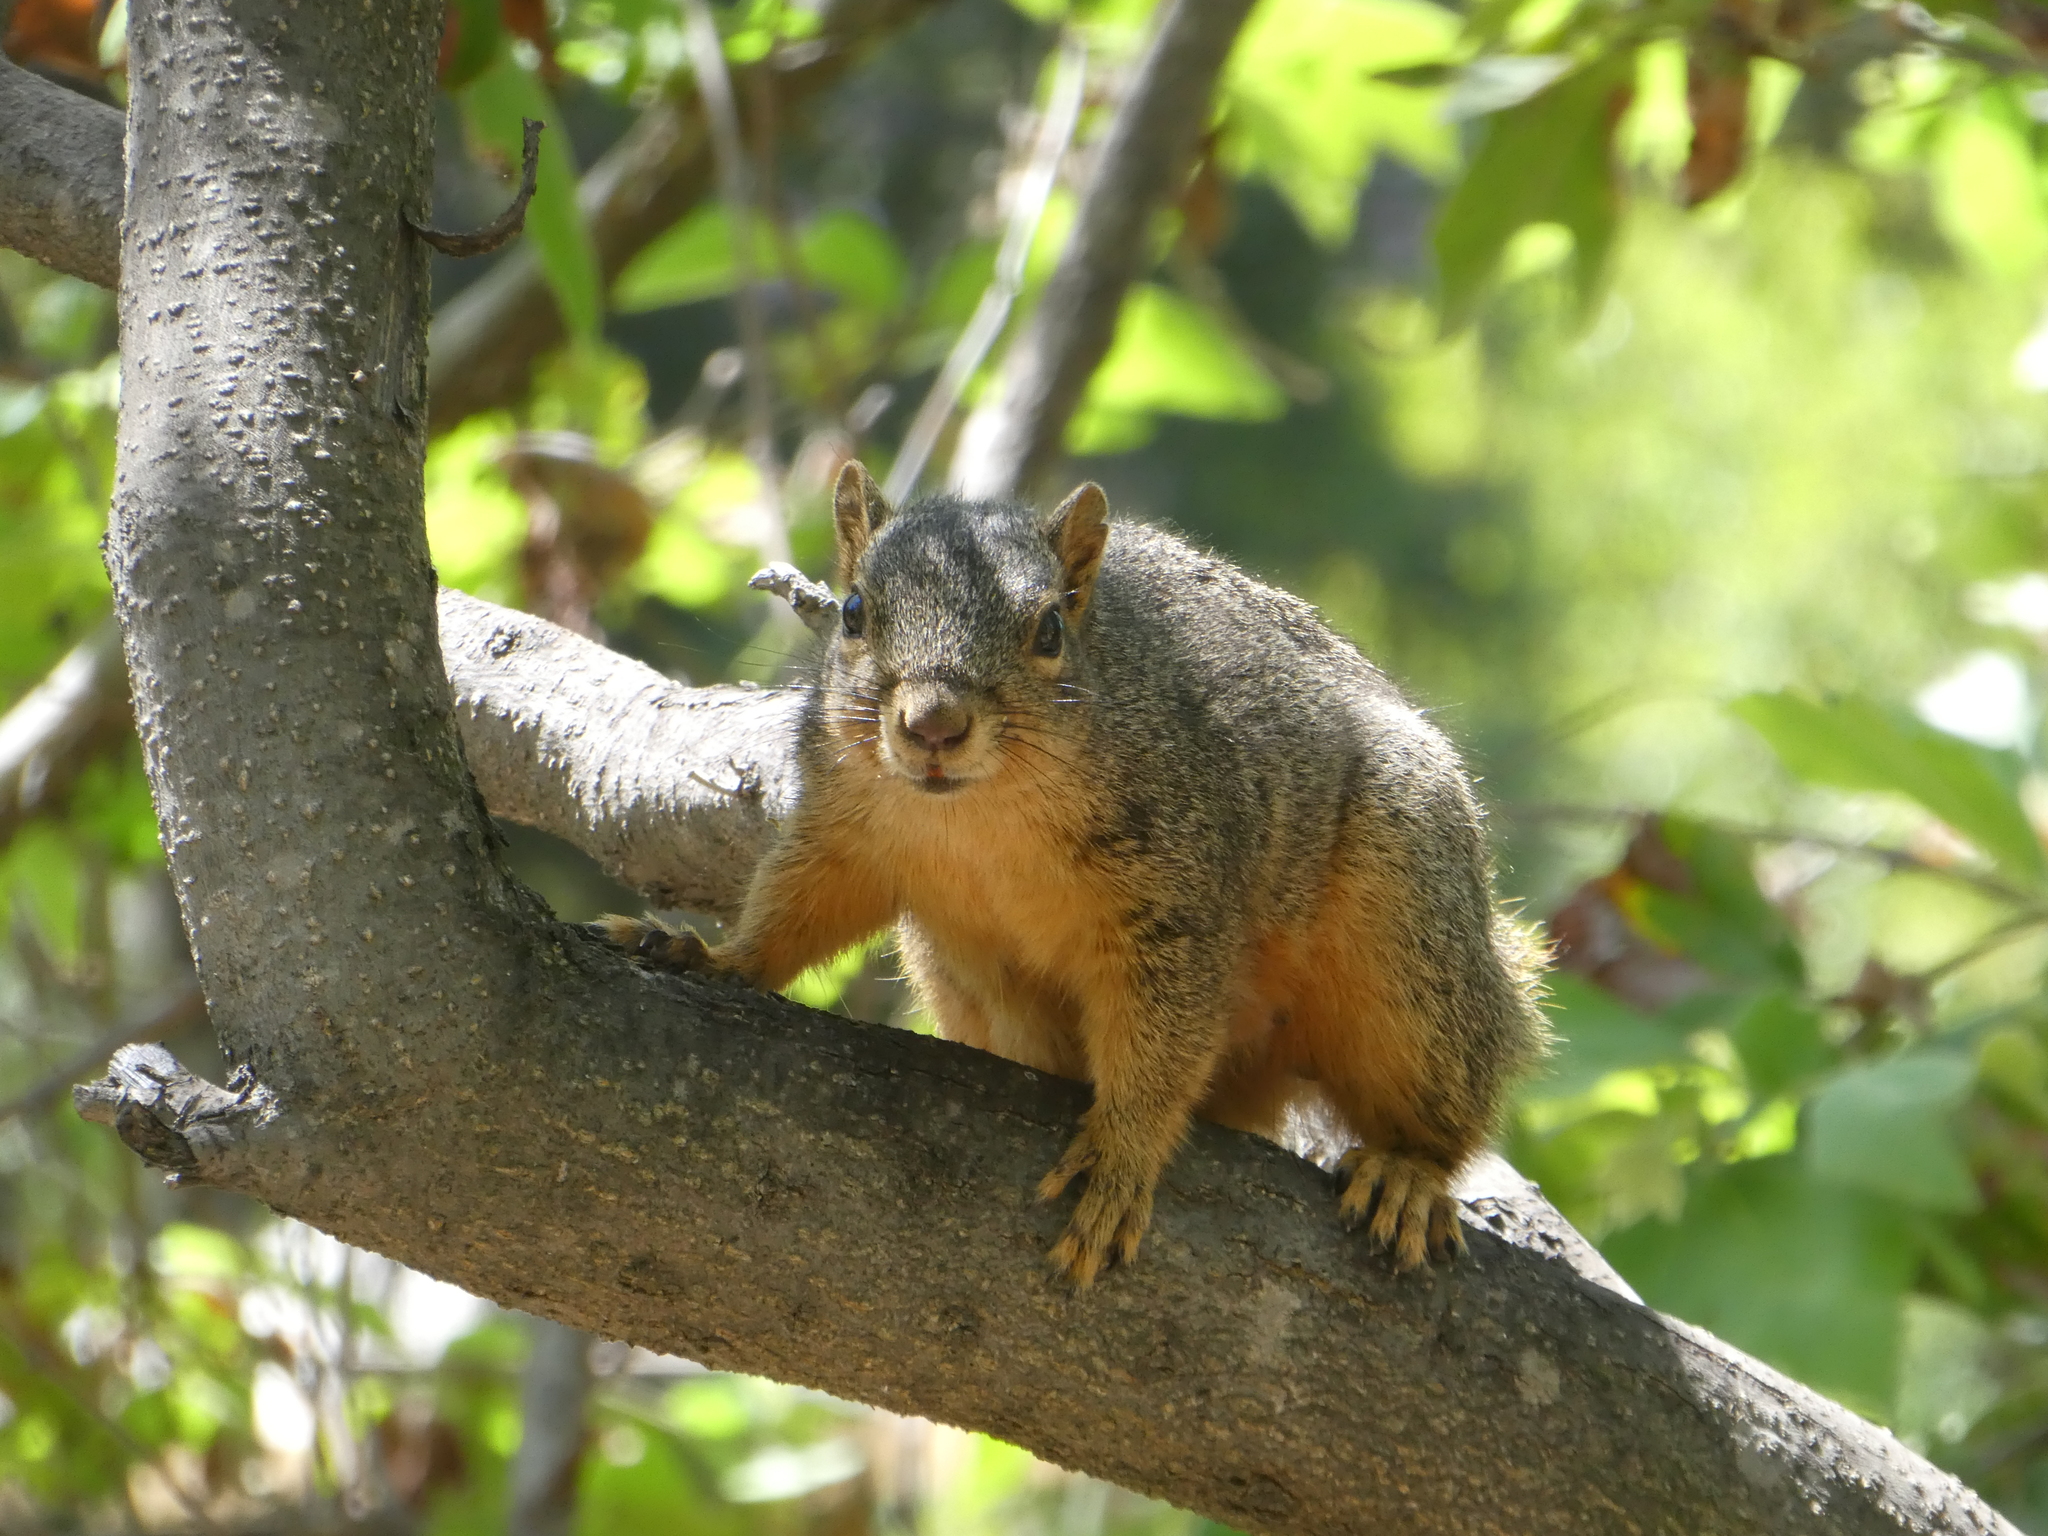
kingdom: Animalia
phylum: Chordata
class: Mammalia
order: Rodentia
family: Sciuridae
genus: Sciurus
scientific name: Sciurus niger
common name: Fox squirrel
